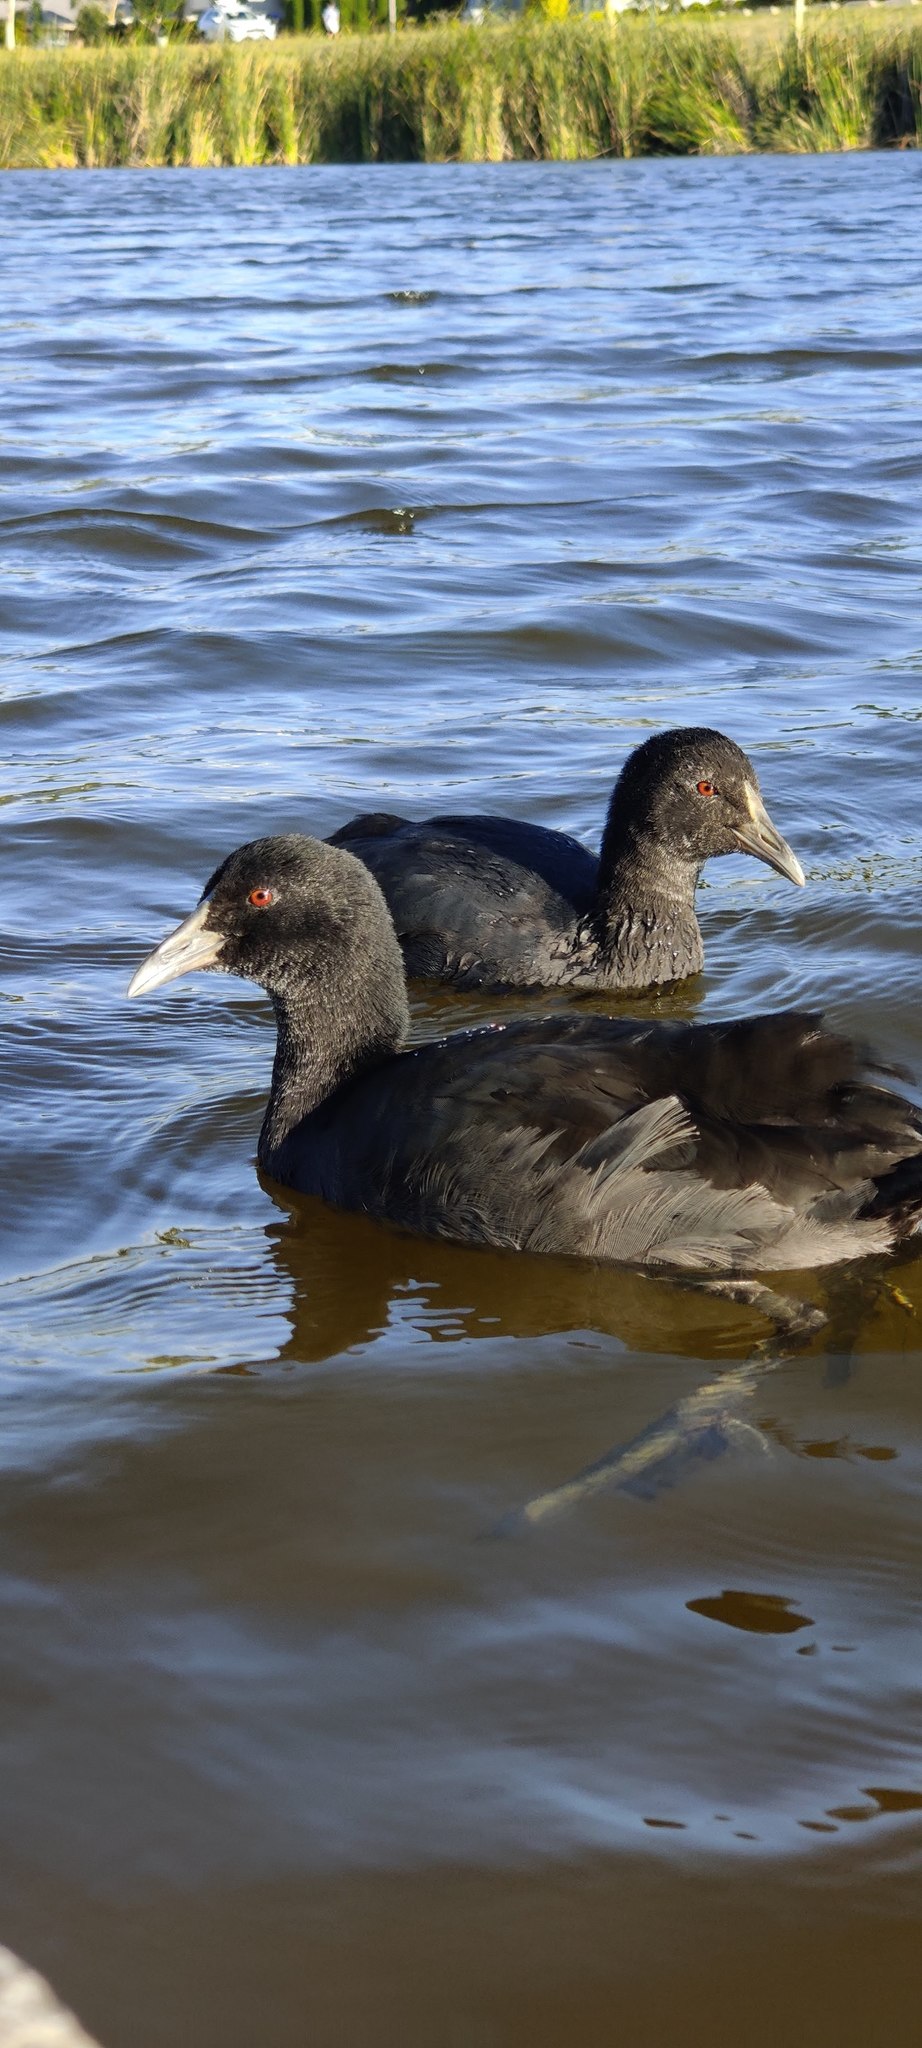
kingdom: Animalia
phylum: Chordata
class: Aves
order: Gruiformes
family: Rallidae
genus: Fulica
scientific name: Fulica atra
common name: Eurasian coot
